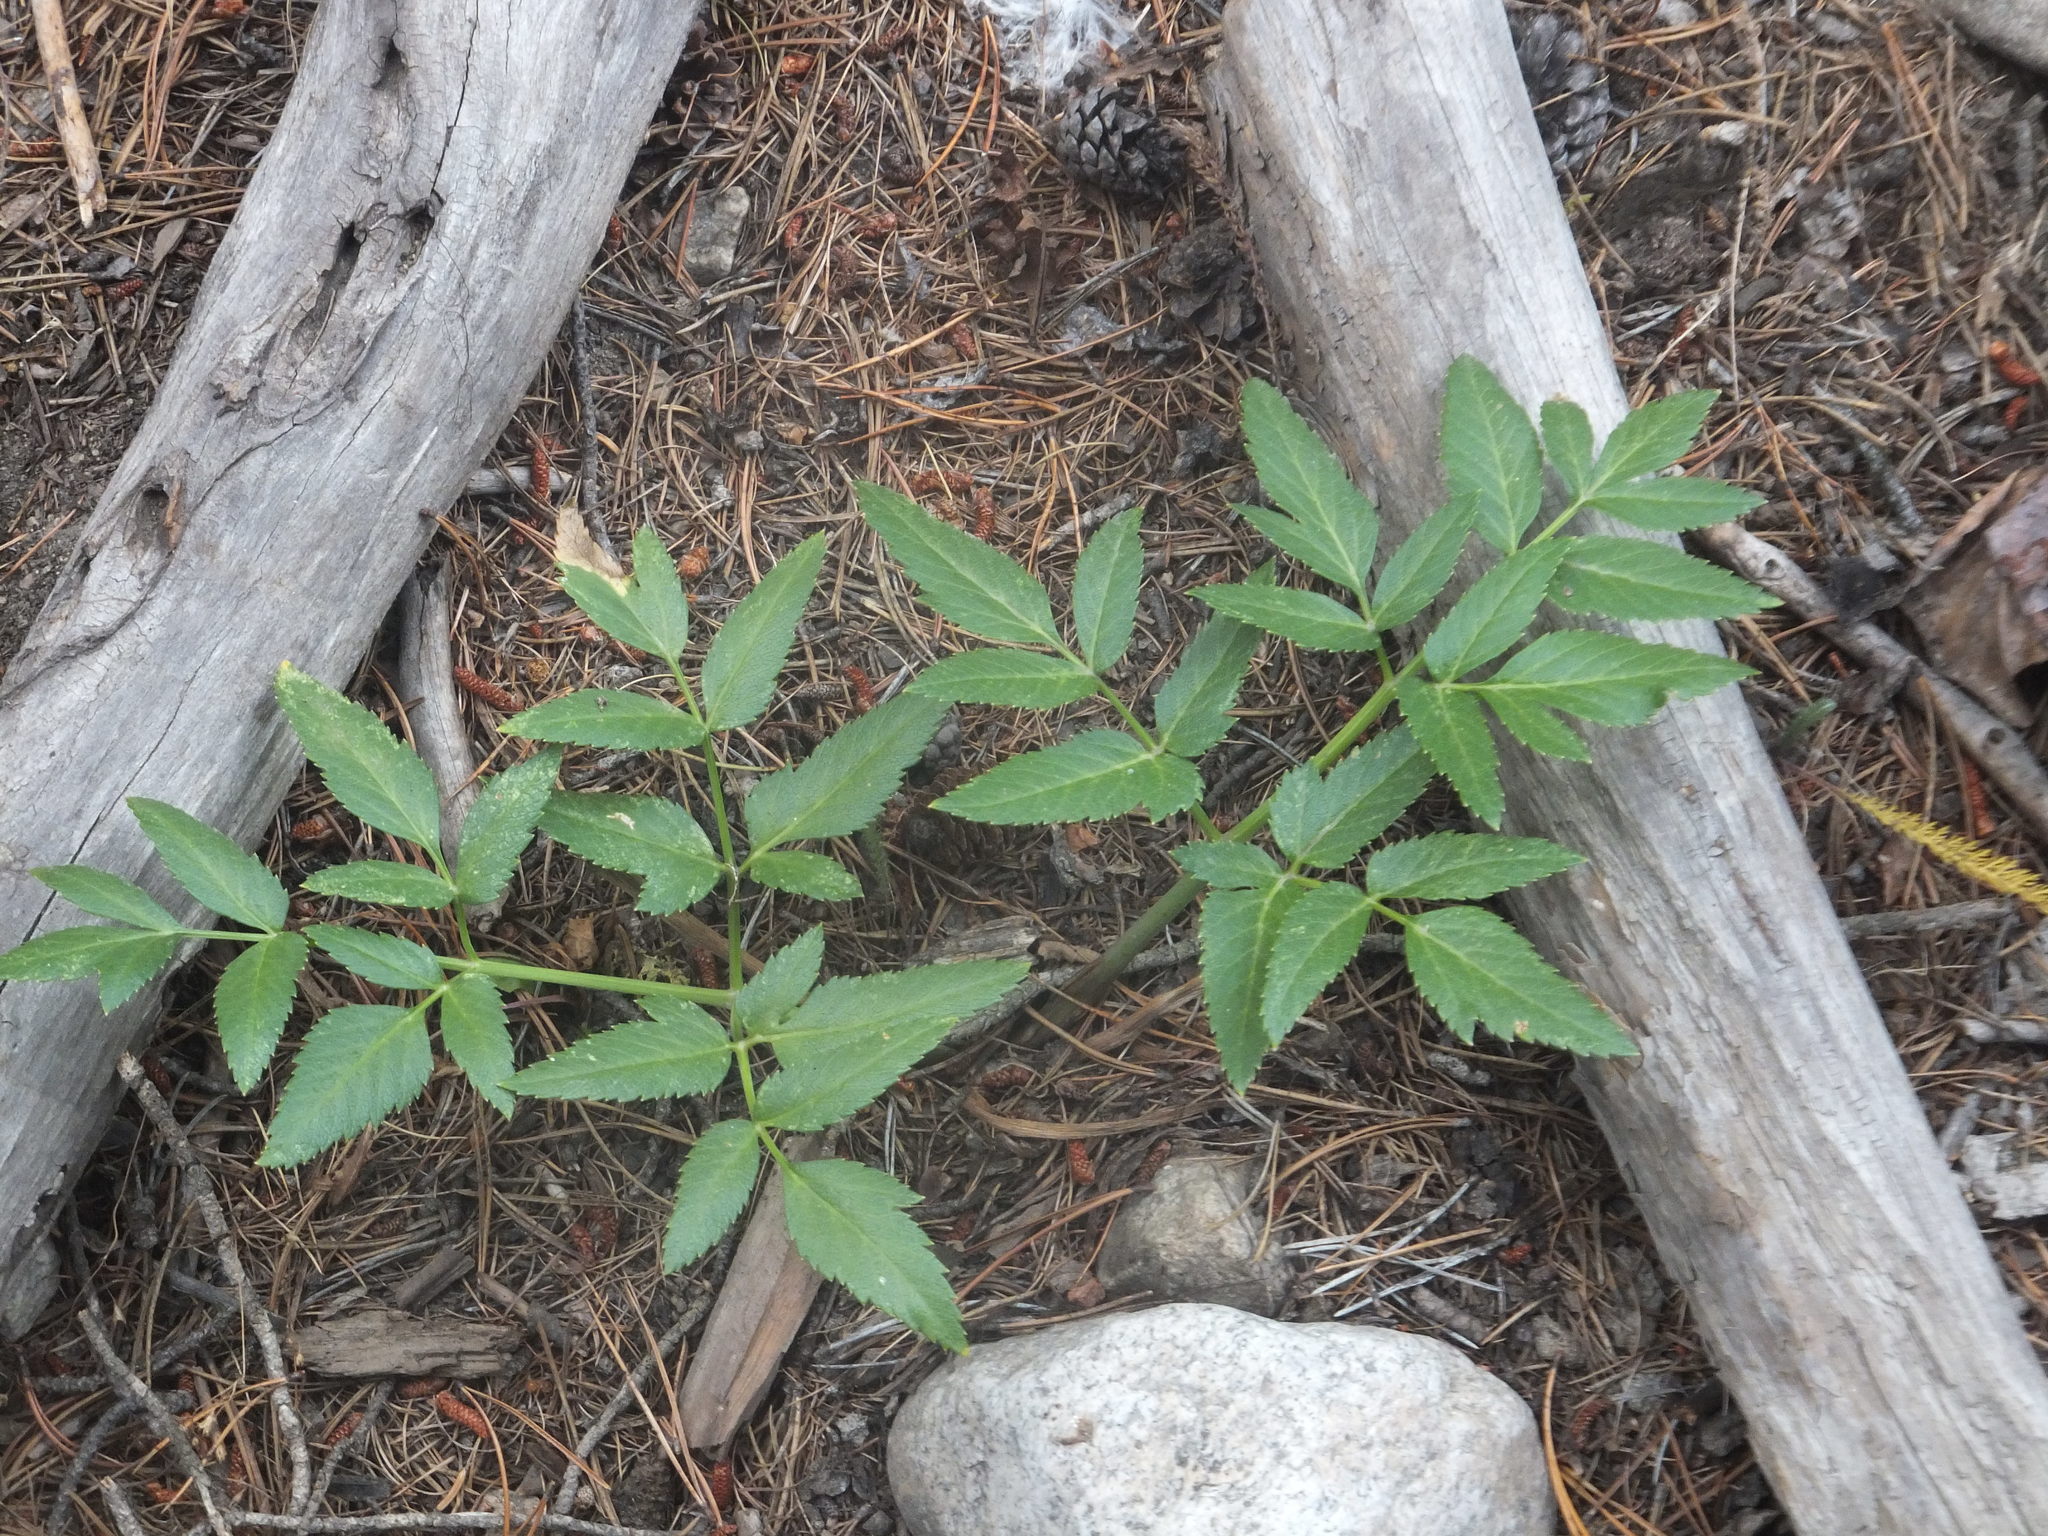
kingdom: Plantae
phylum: Tracheophyta
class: Magnoliopsida
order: Apiales
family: Apiaceae
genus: Angelica
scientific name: Angelica arguta
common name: Lyall's angelica
